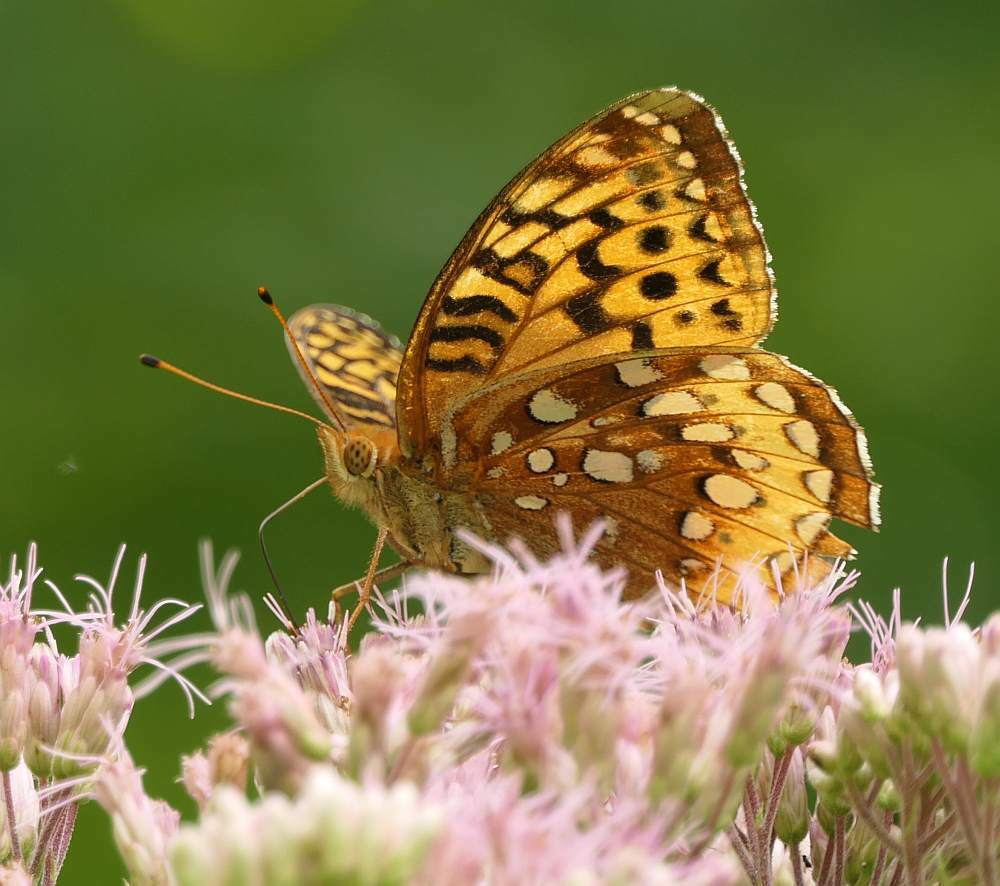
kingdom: Animalia
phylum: Arthropoda
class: Insecta
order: Lepidoptera
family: Nymphalidae
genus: Speyeria
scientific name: Speyeria cybele
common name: Great spangled fritillary
